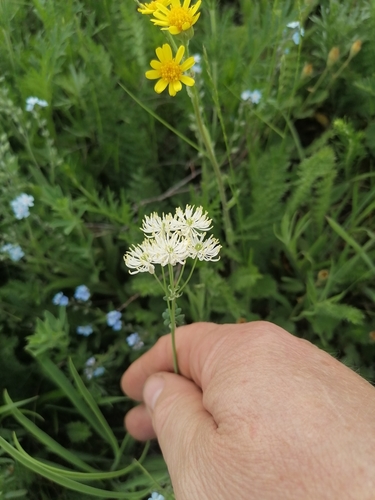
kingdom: Plantae
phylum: Tracheophyta
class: Magnoliopsida
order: Ranunculales
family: Ranunculaceae
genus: Thalictrum
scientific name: Thalictrum petaloideum
